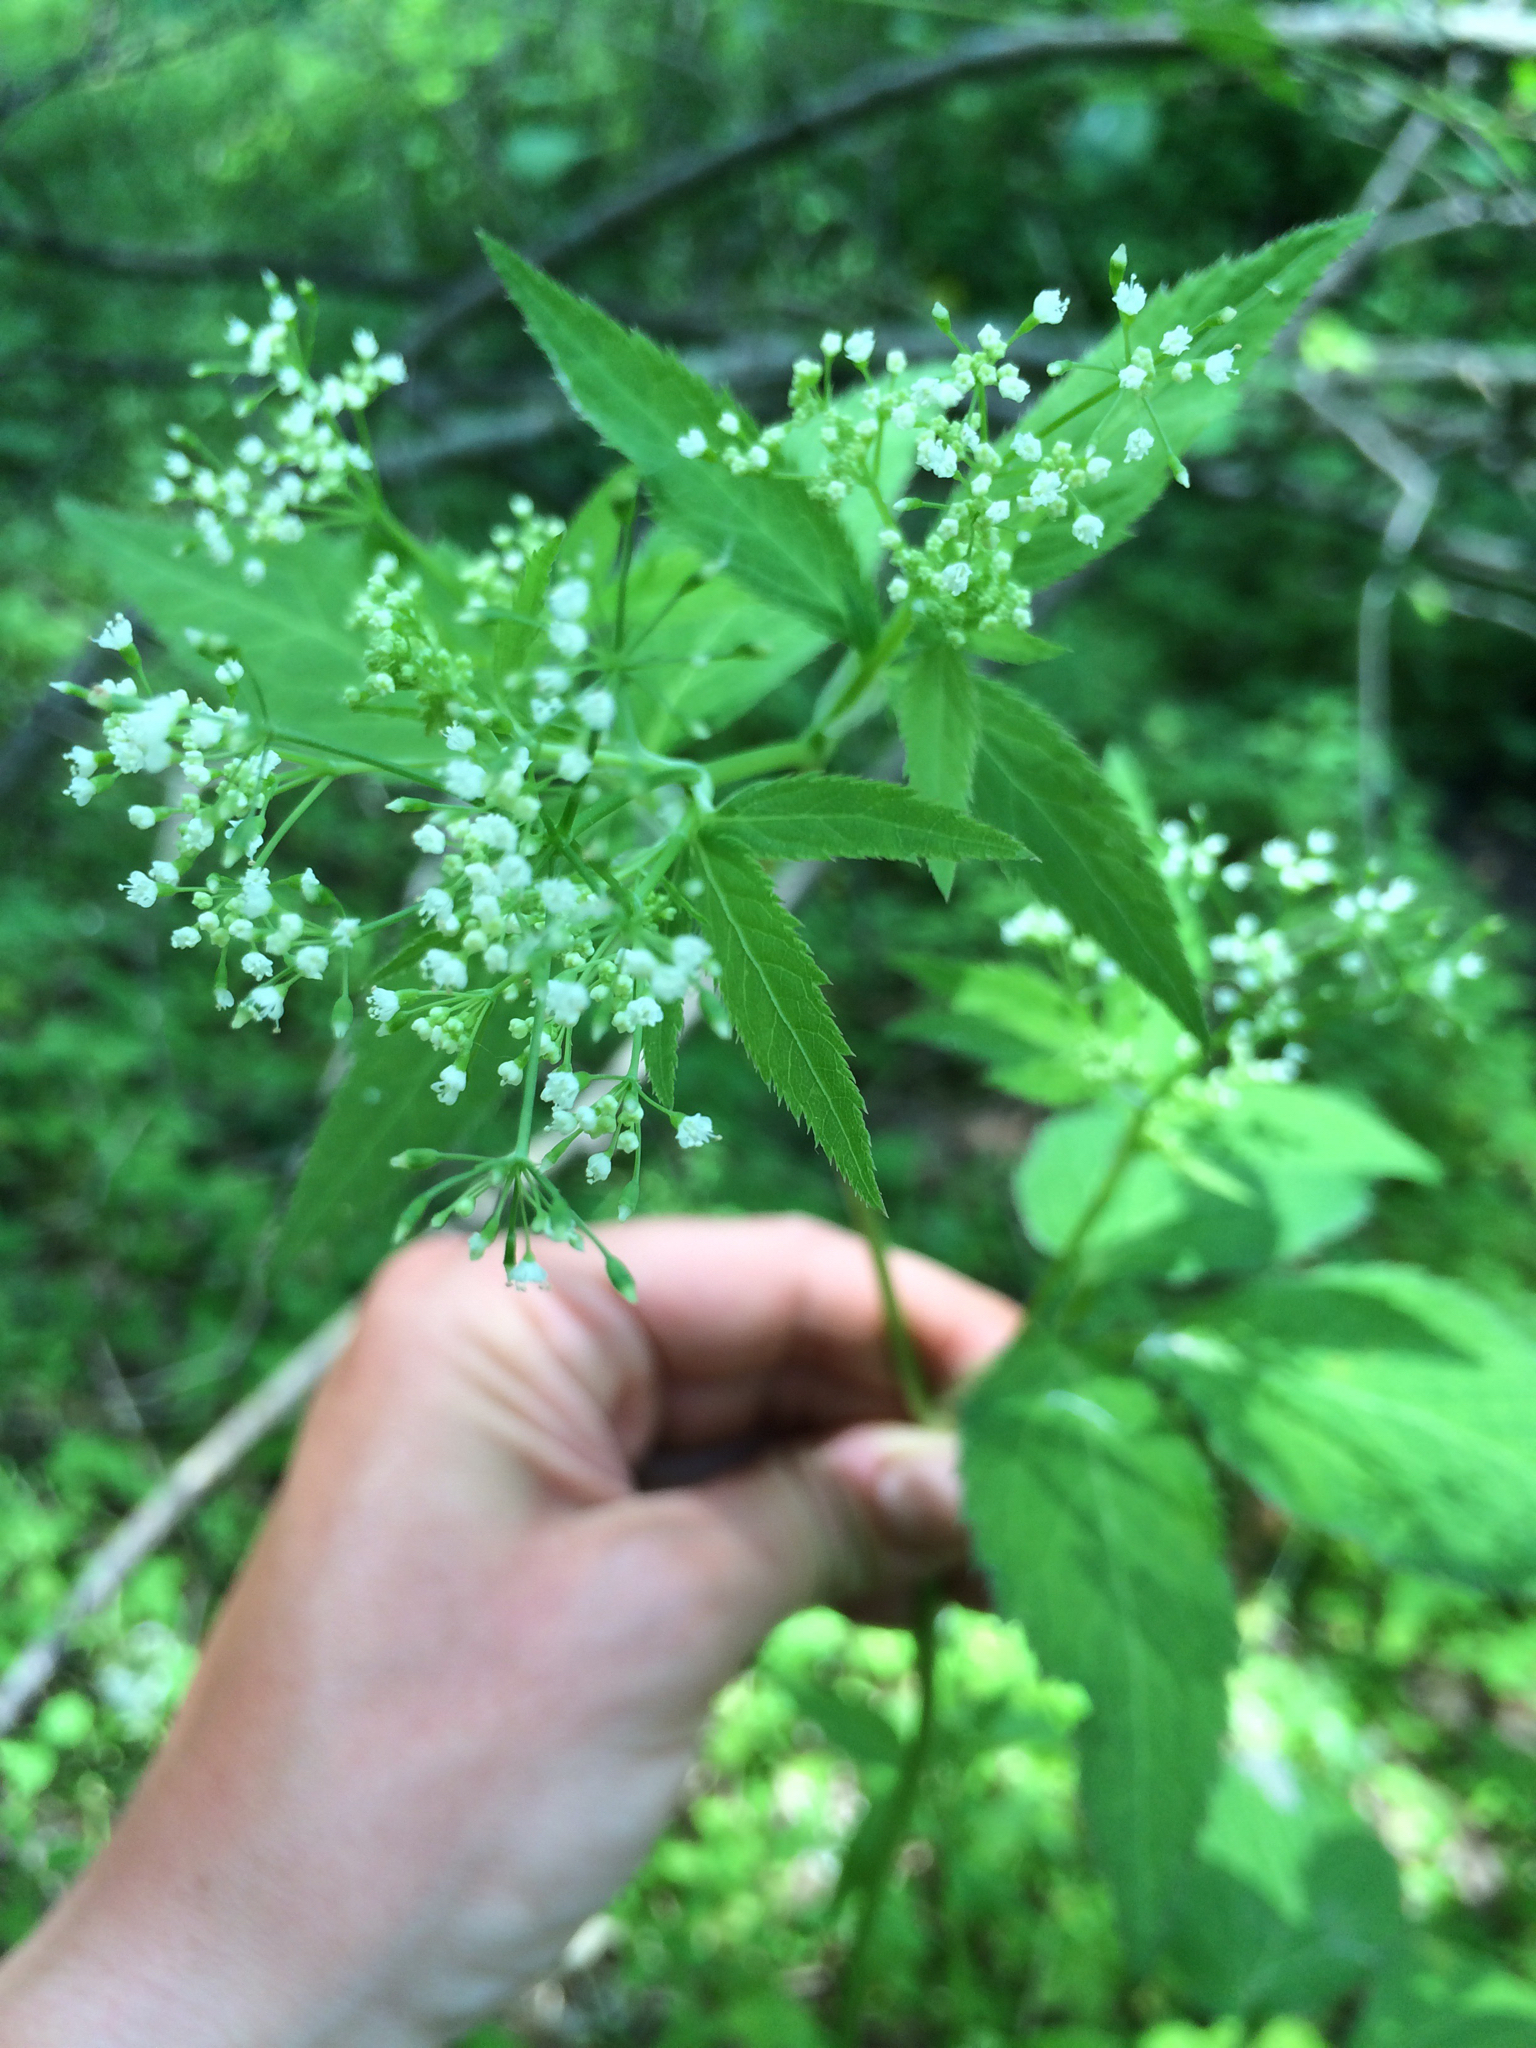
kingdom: Plantae
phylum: Tracheophyta
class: Magnoliopsida
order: Apiales
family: Apiaceae
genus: Cryptotaenia
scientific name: Cryptotaenia canadensis
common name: Honewort
